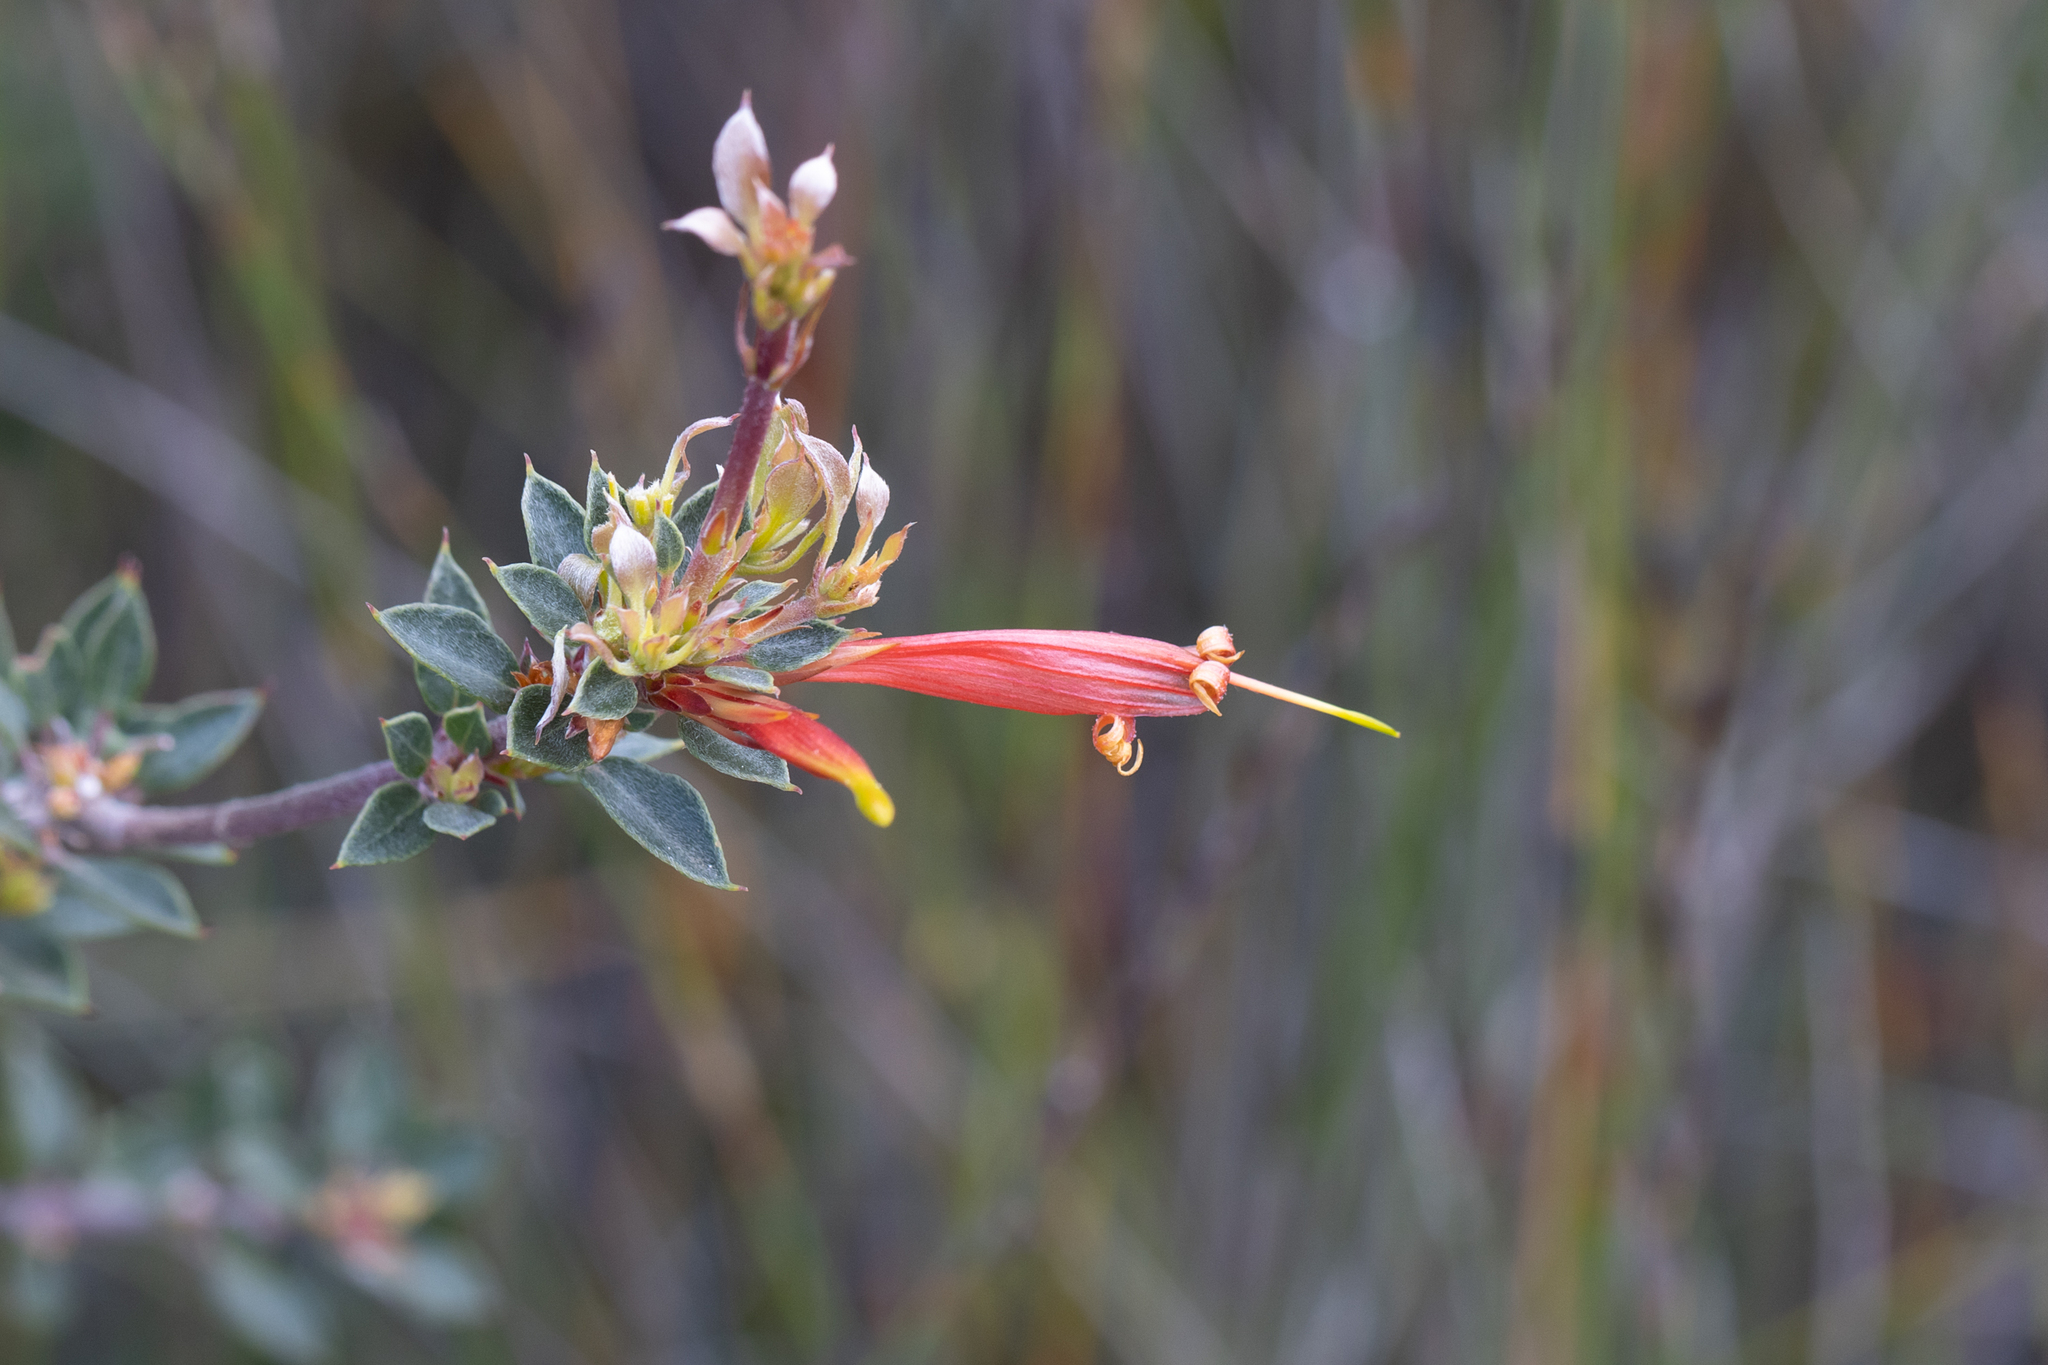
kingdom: Plantae
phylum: Tracheophyta
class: Magnoliopsida
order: Proteales
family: Proteaceae
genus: Lambertia
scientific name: Lambertia uniflora
